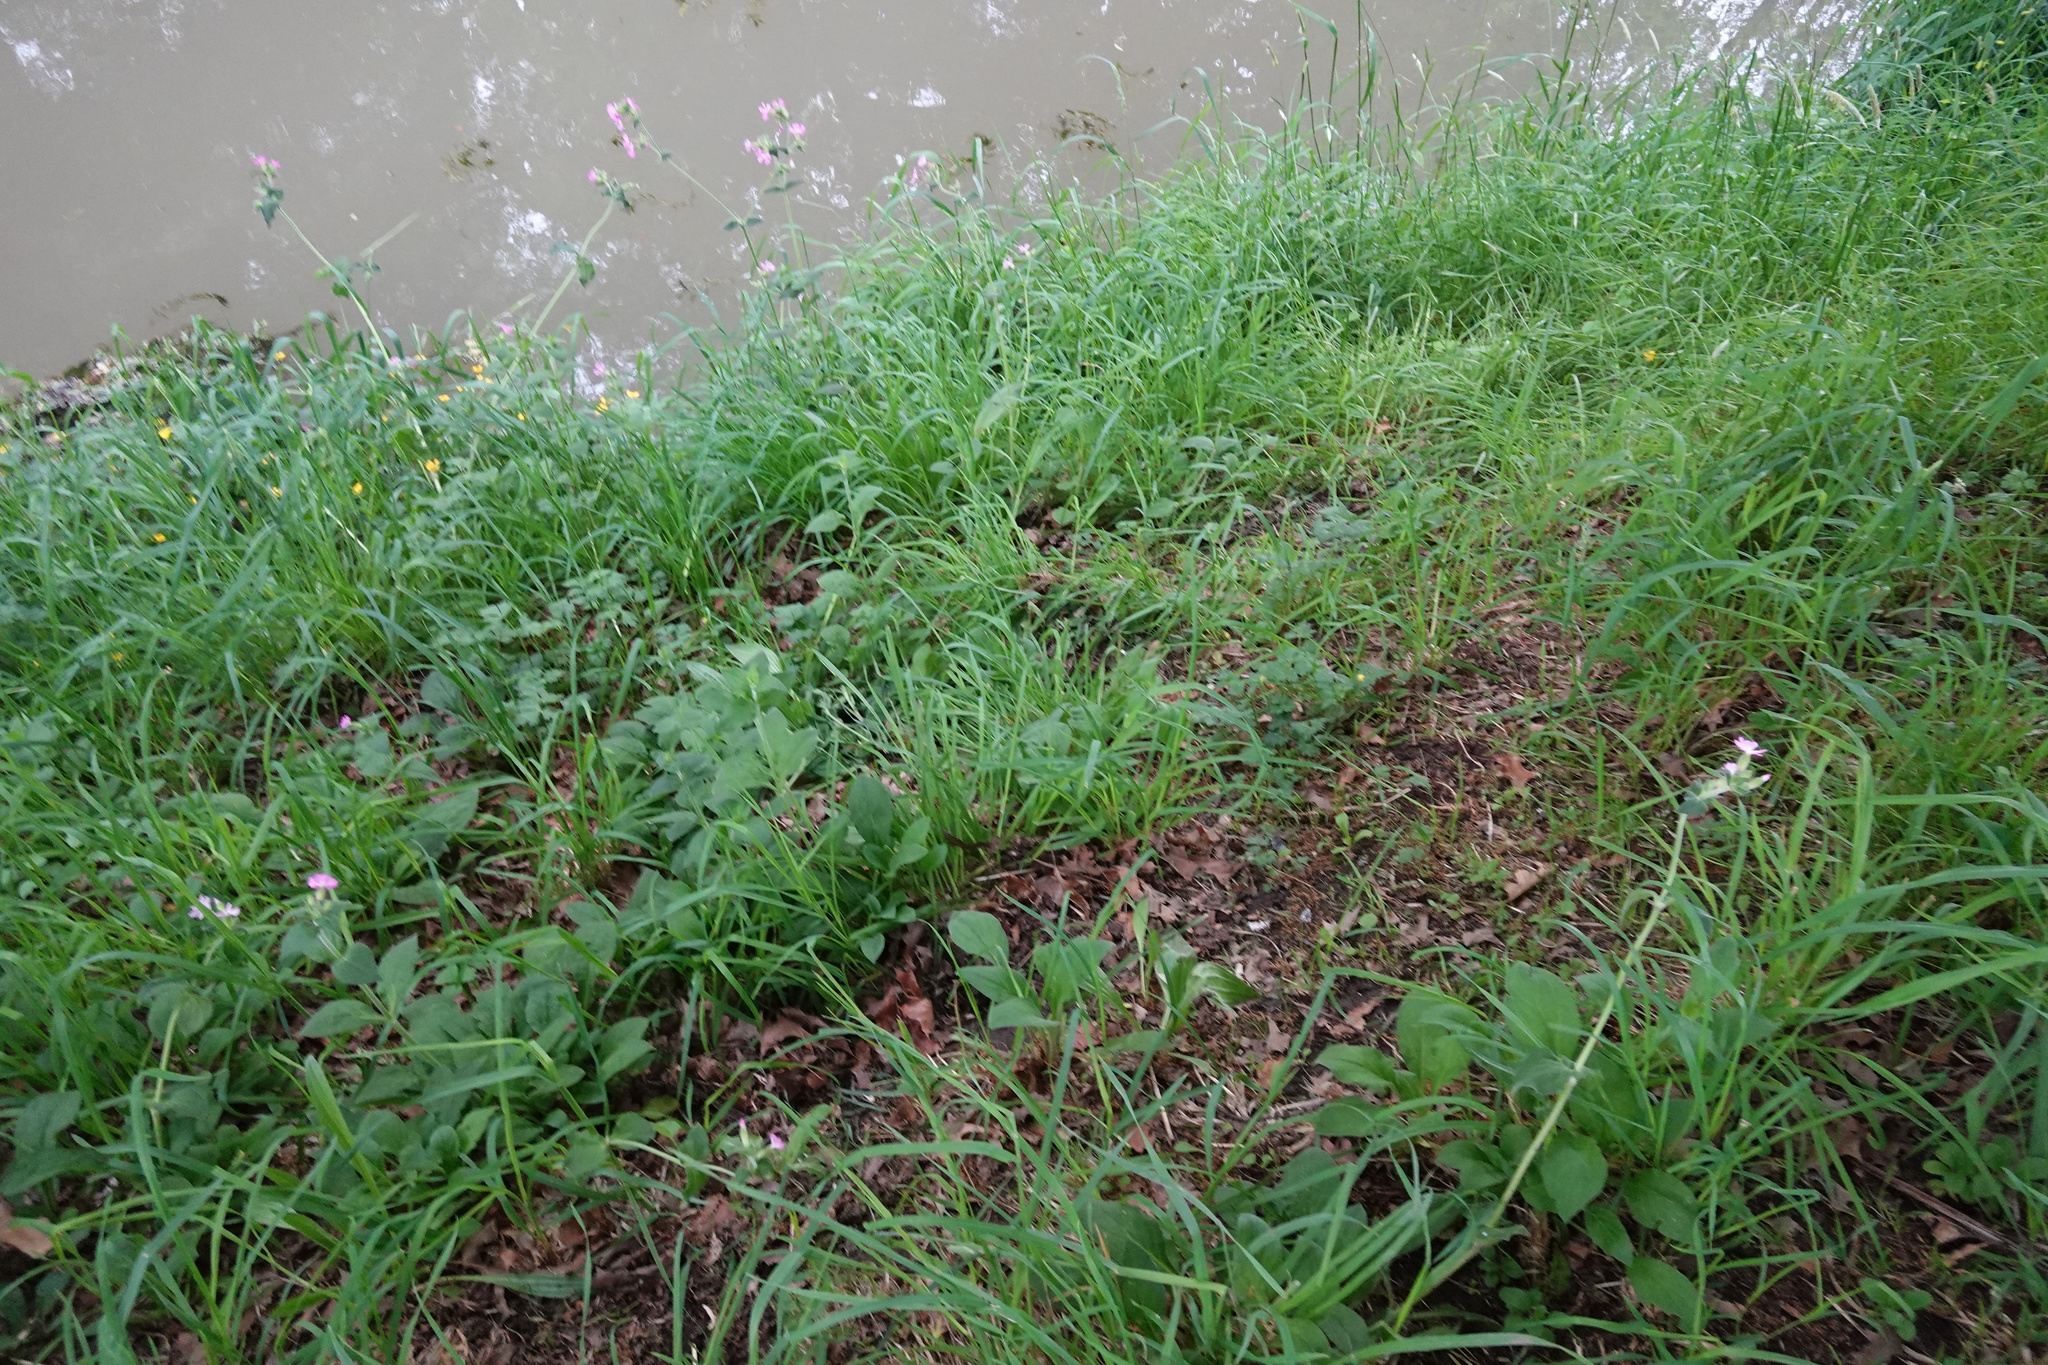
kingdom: Plantae
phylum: Tracheophyta
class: Magnoliopsida
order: Caryophyllales
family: Caryophyllaceae
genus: Silene
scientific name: Silene dioica
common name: Red campion
